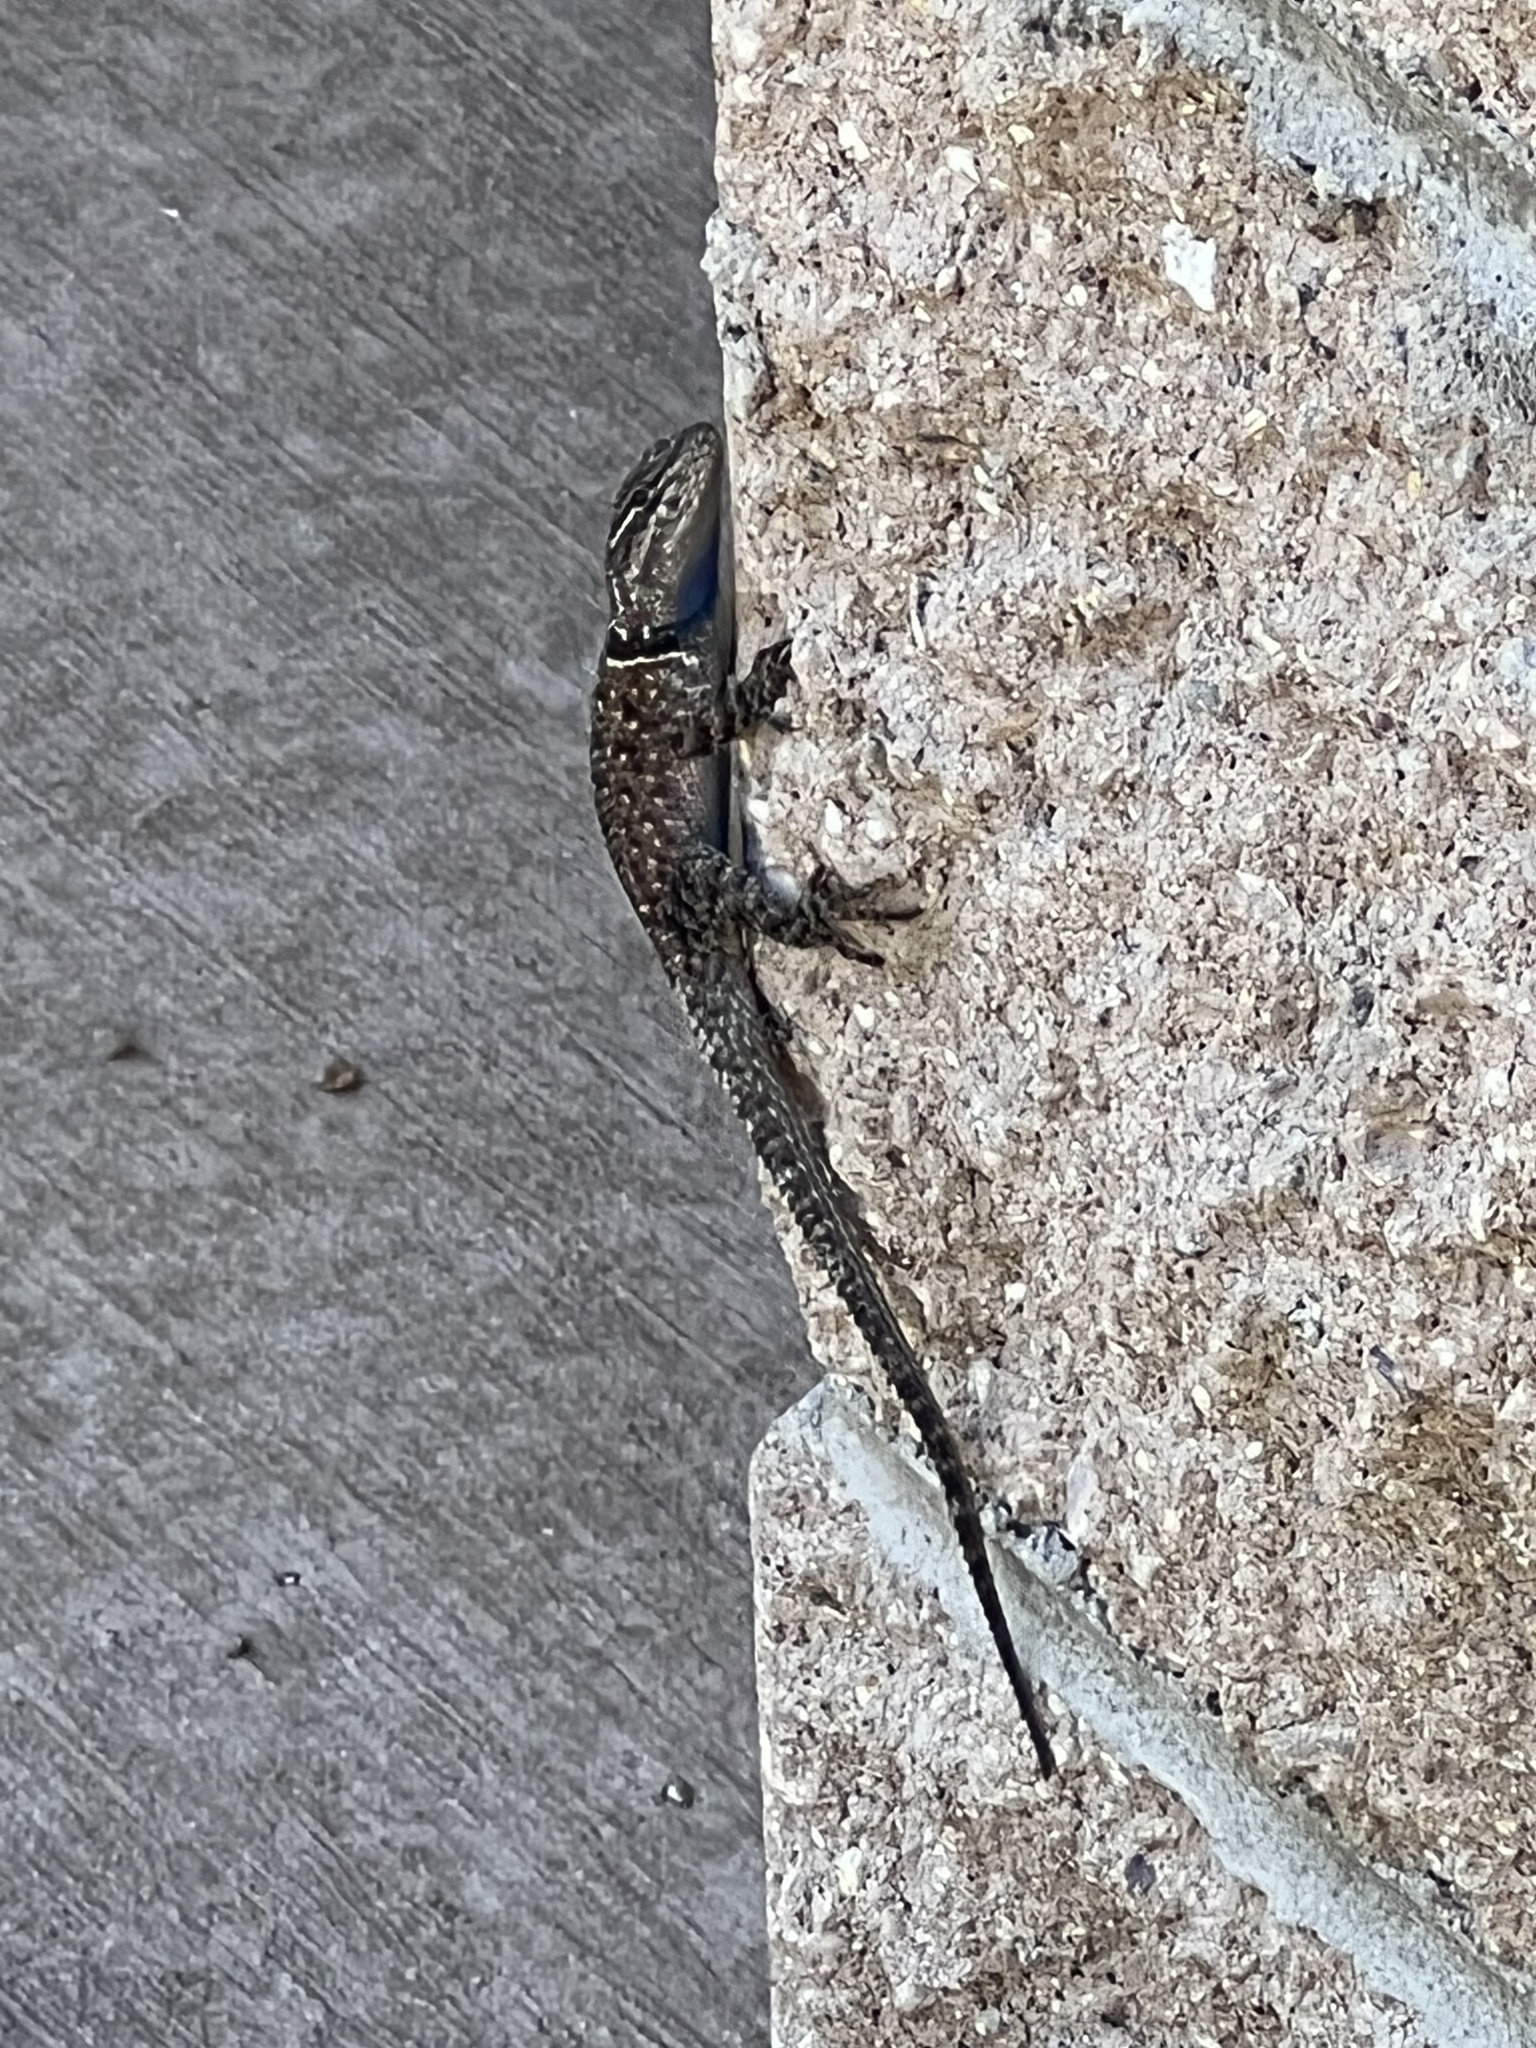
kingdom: Animalia
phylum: Chordata
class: Squamata
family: Phrynosomatidae
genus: Sceloporus
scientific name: Sceloporus jarrovii
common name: Yarrow's spiny lizard
